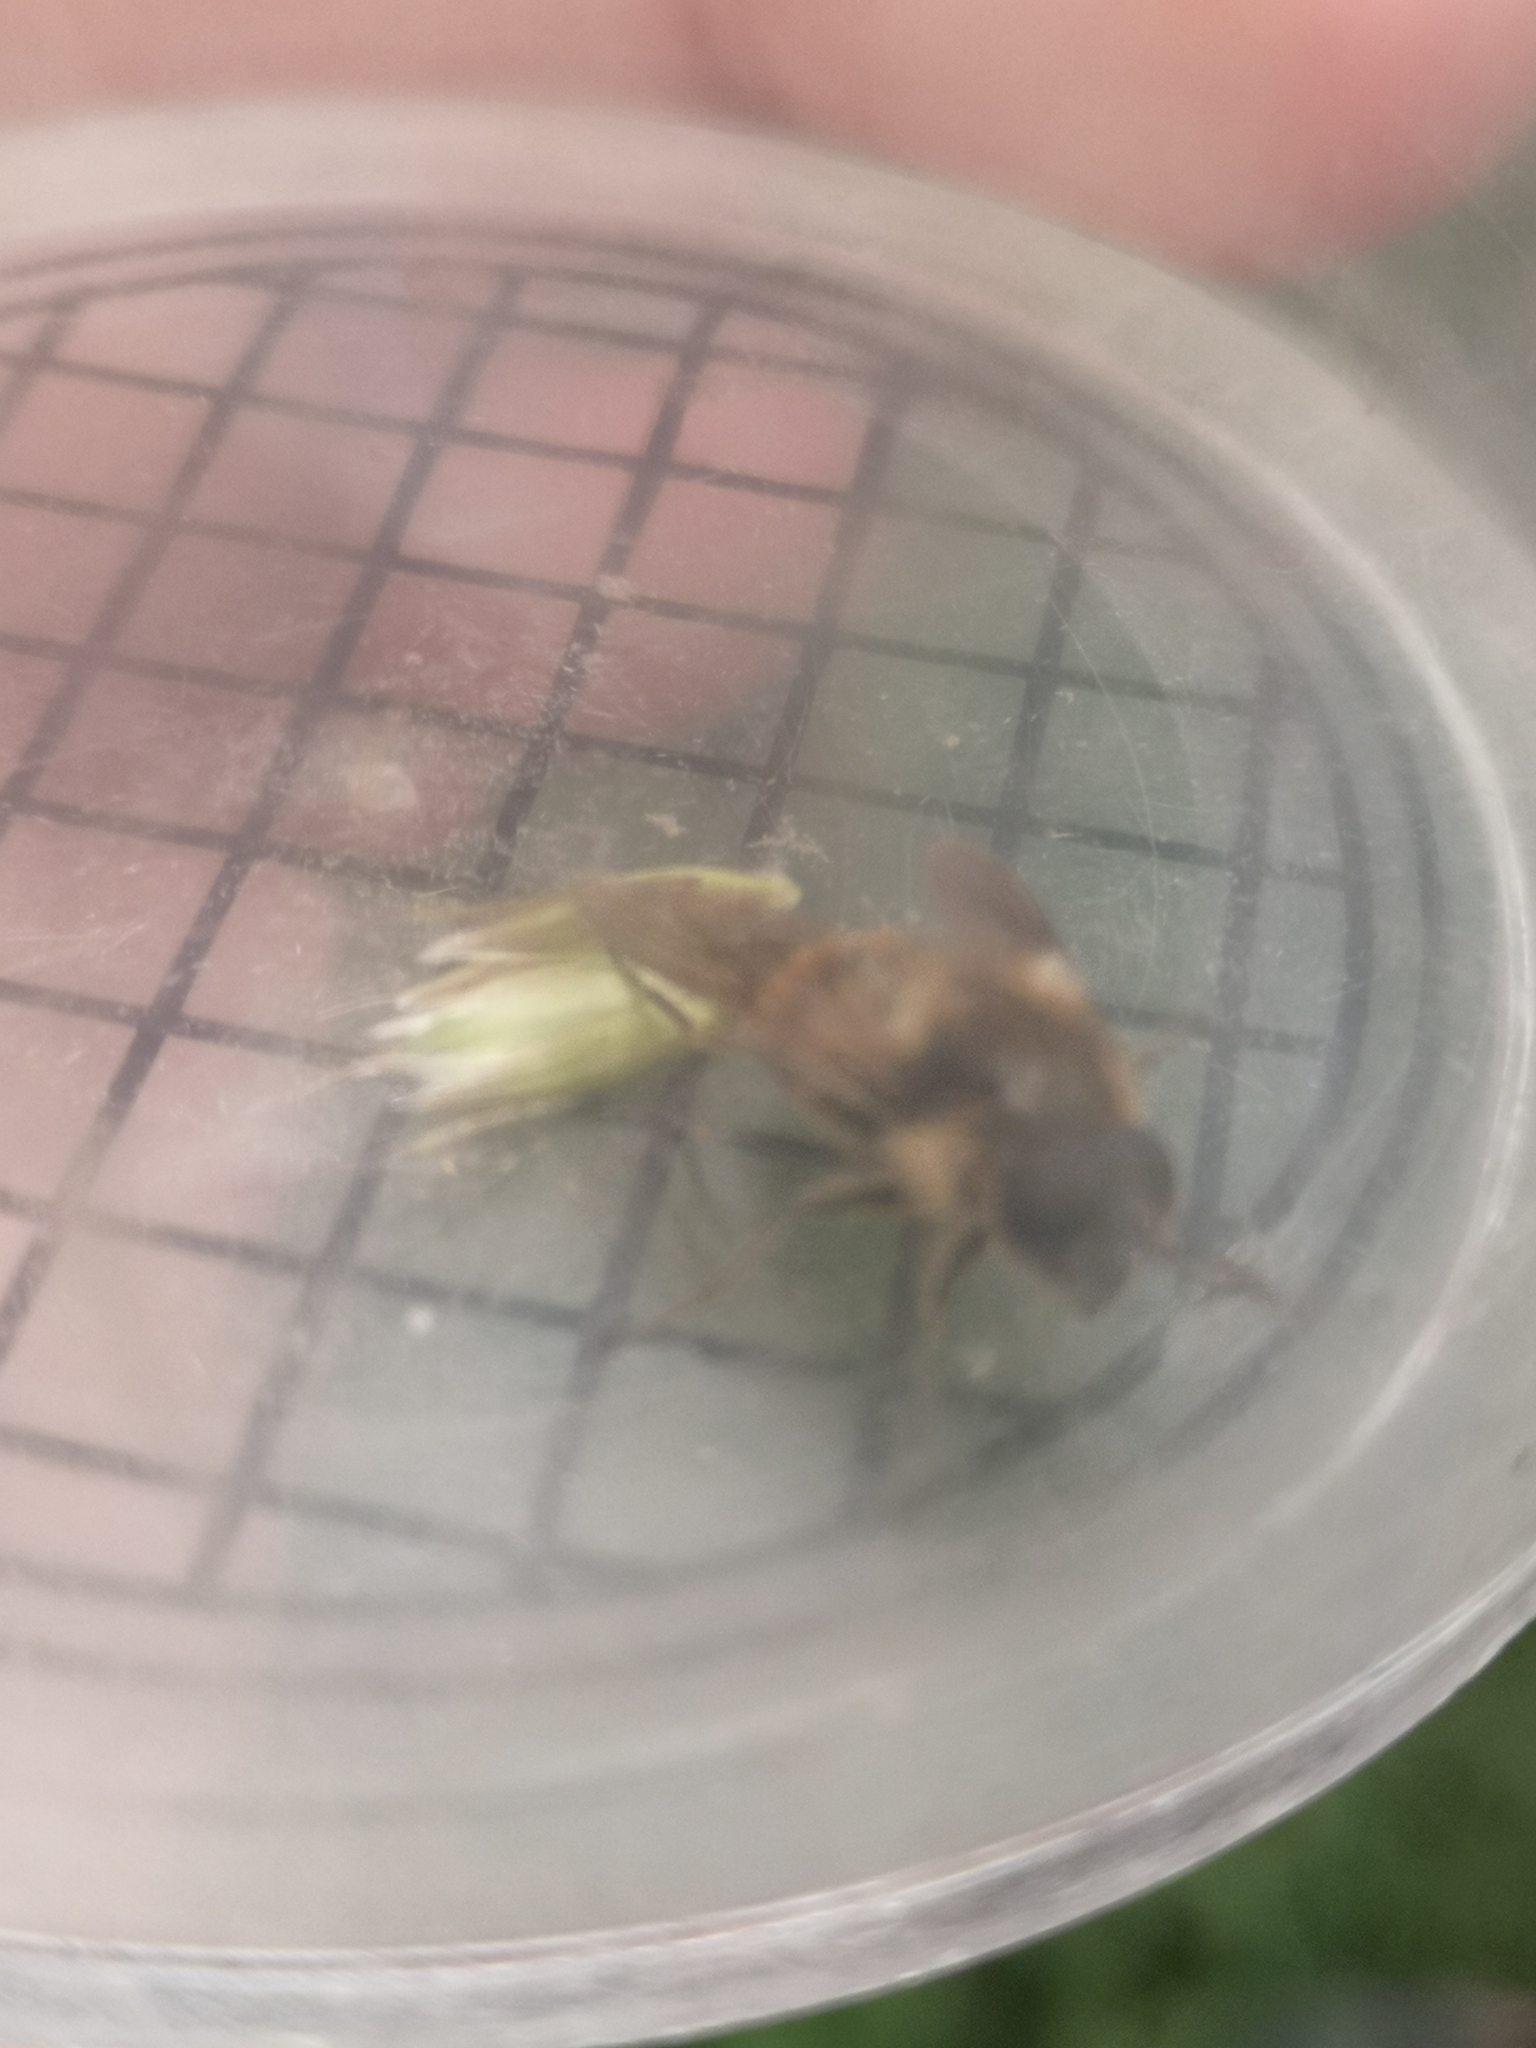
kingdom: Animalia
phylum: Arthropoda
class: Insecta
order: Diptera
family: Syrphidae
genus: Cheilosia
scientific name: Cheilosia illustrata
